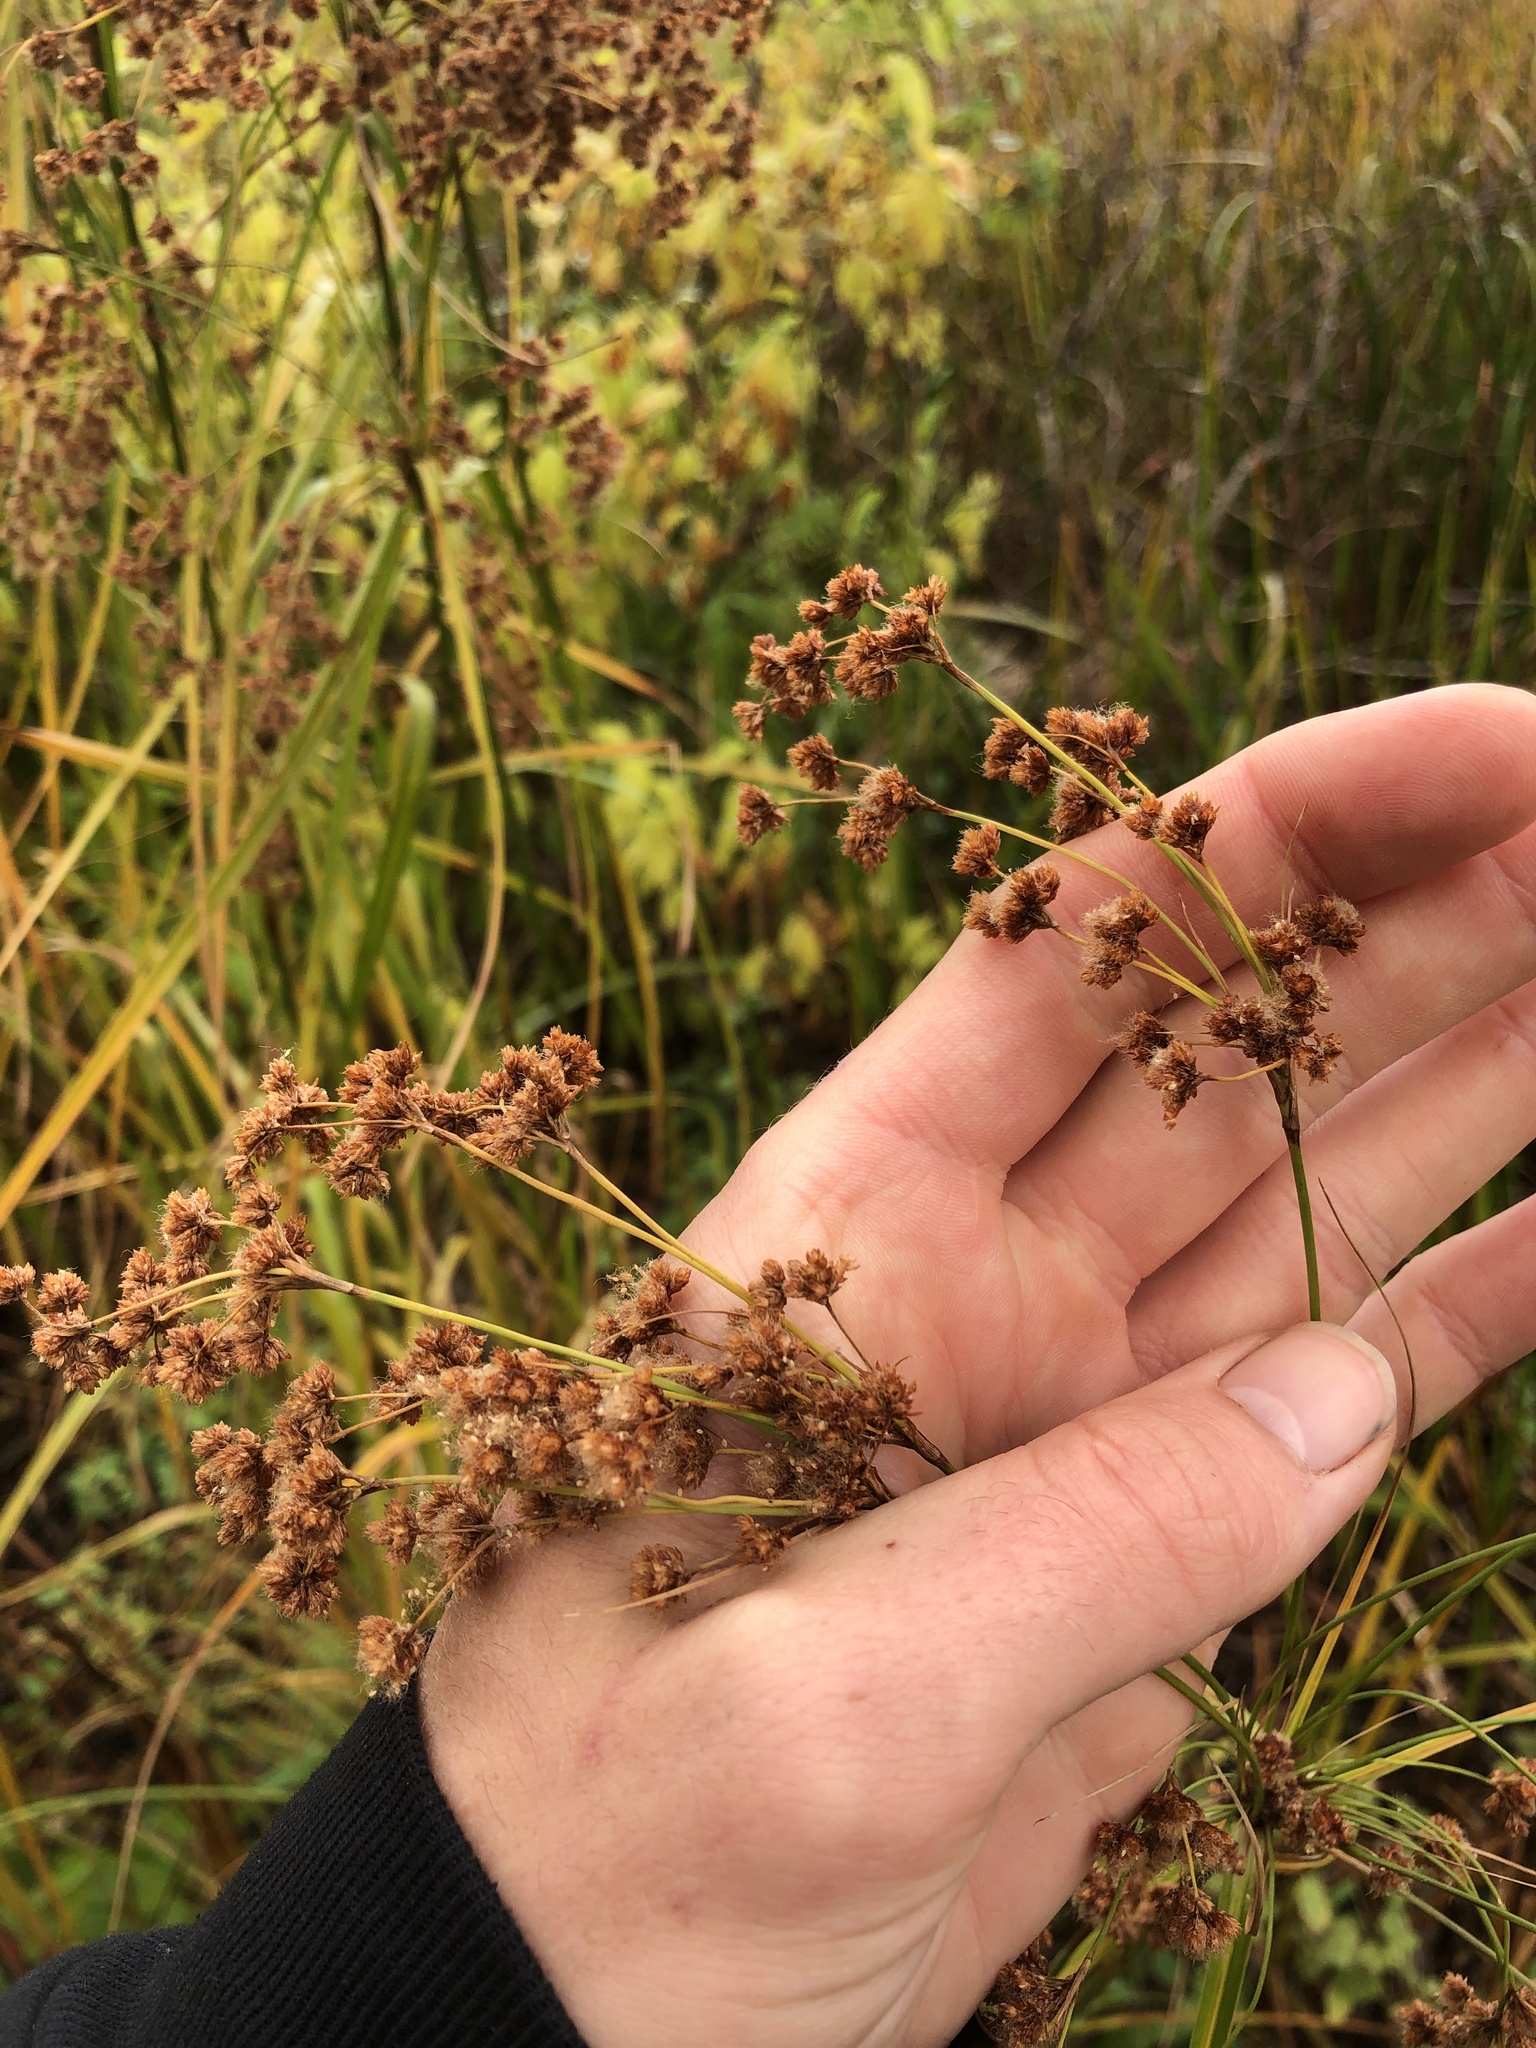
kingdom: Plantae
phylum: Tracheophyta
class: Liliopsida
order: Poales
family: Cyperaceae
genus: Scirpus
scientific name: Scirpus cyperinus
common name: Black-sheathed bulrush
